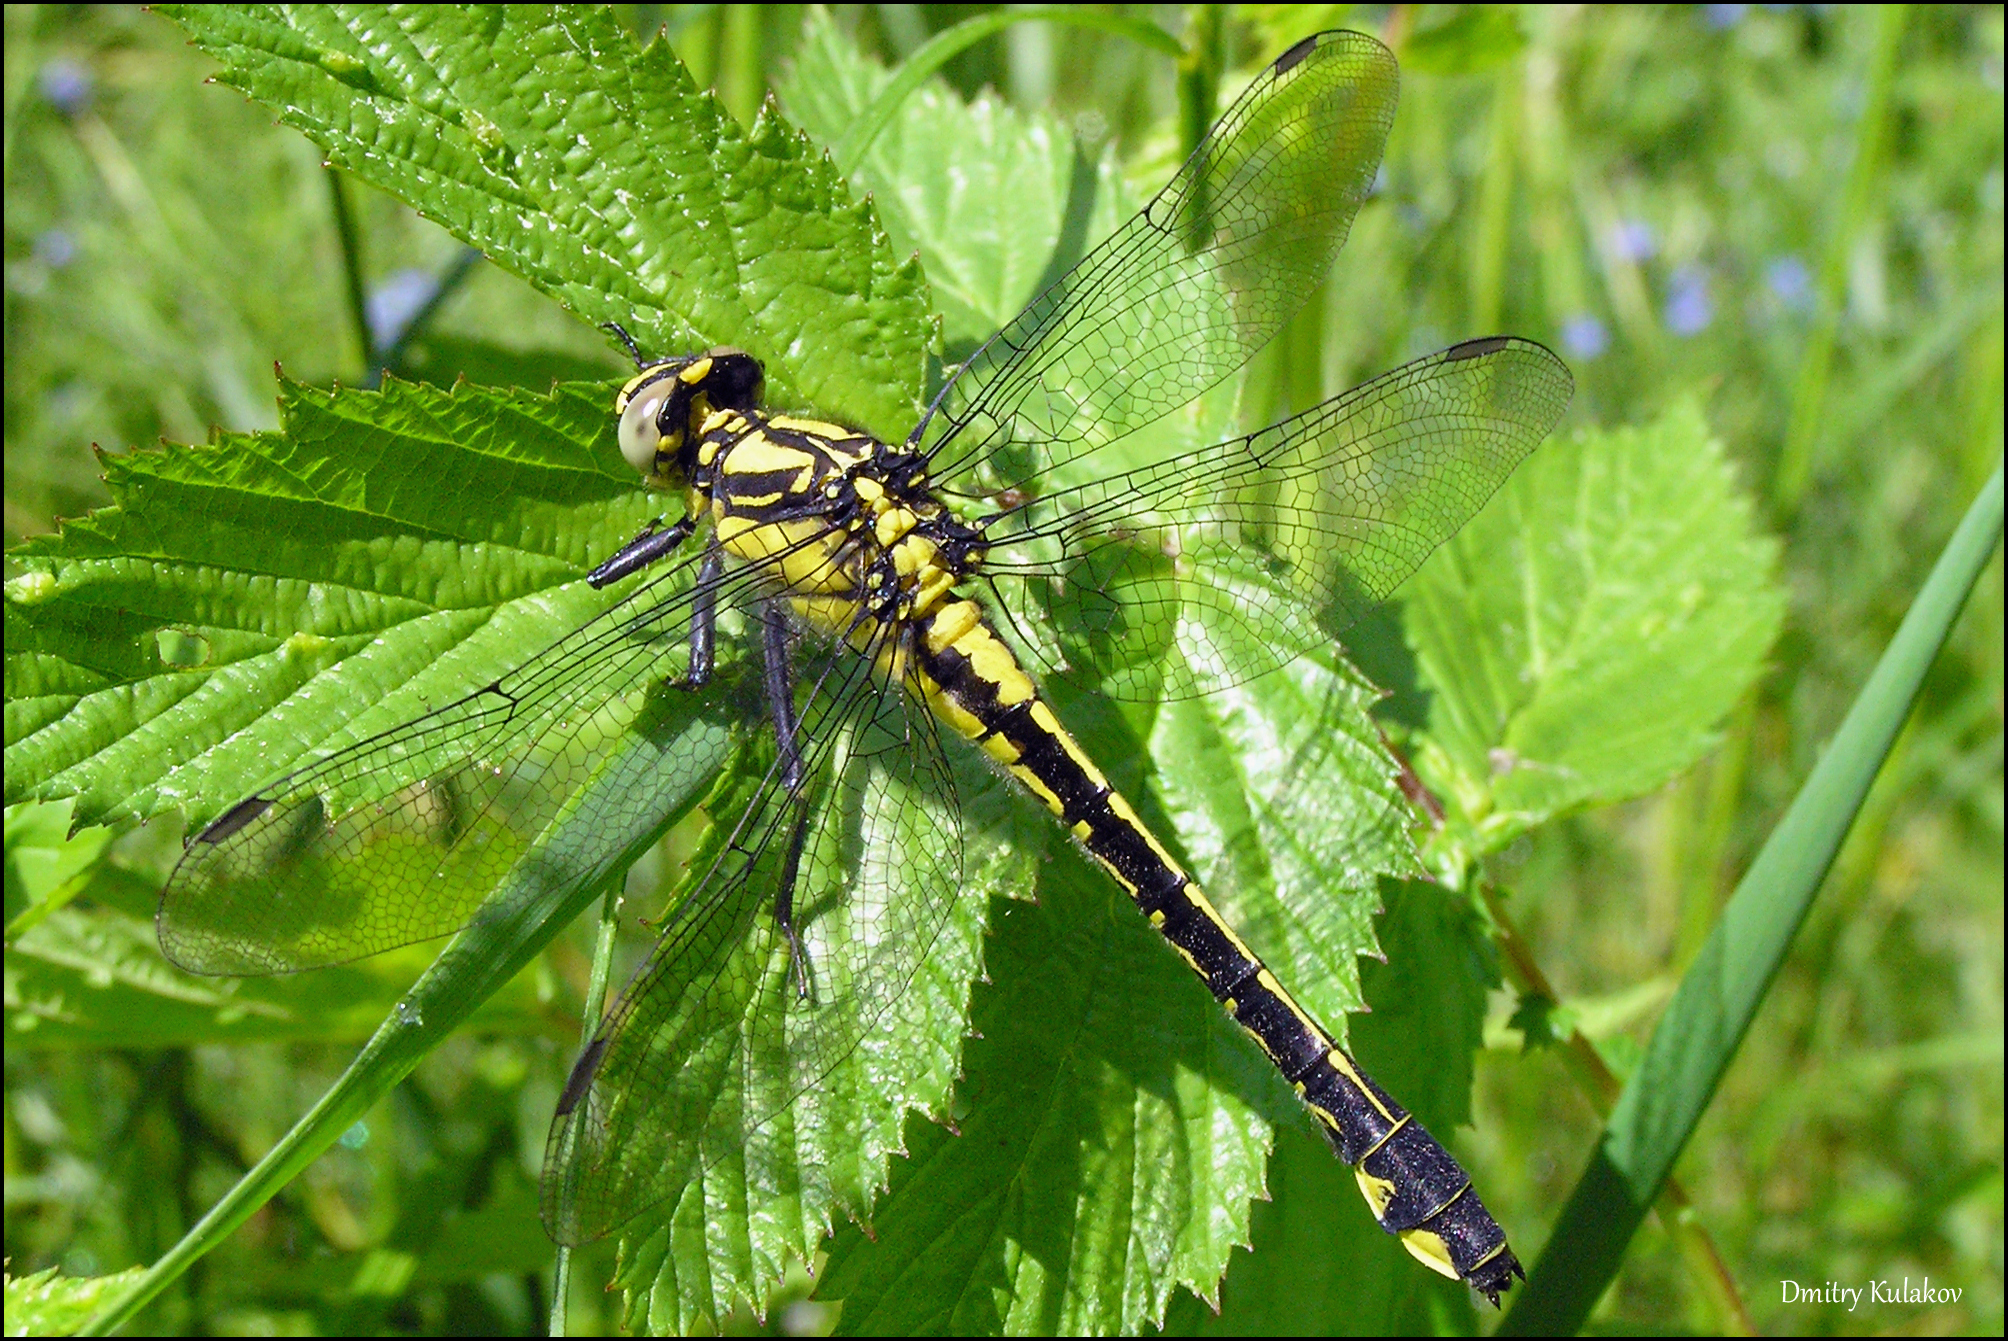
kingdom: Animalia
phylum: Arthropoda
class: Insecta
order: Odonata
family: Gomphidae
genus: Gomphus
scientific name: Gomphus vulgatissimus
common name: Club-tailed dragonfly
